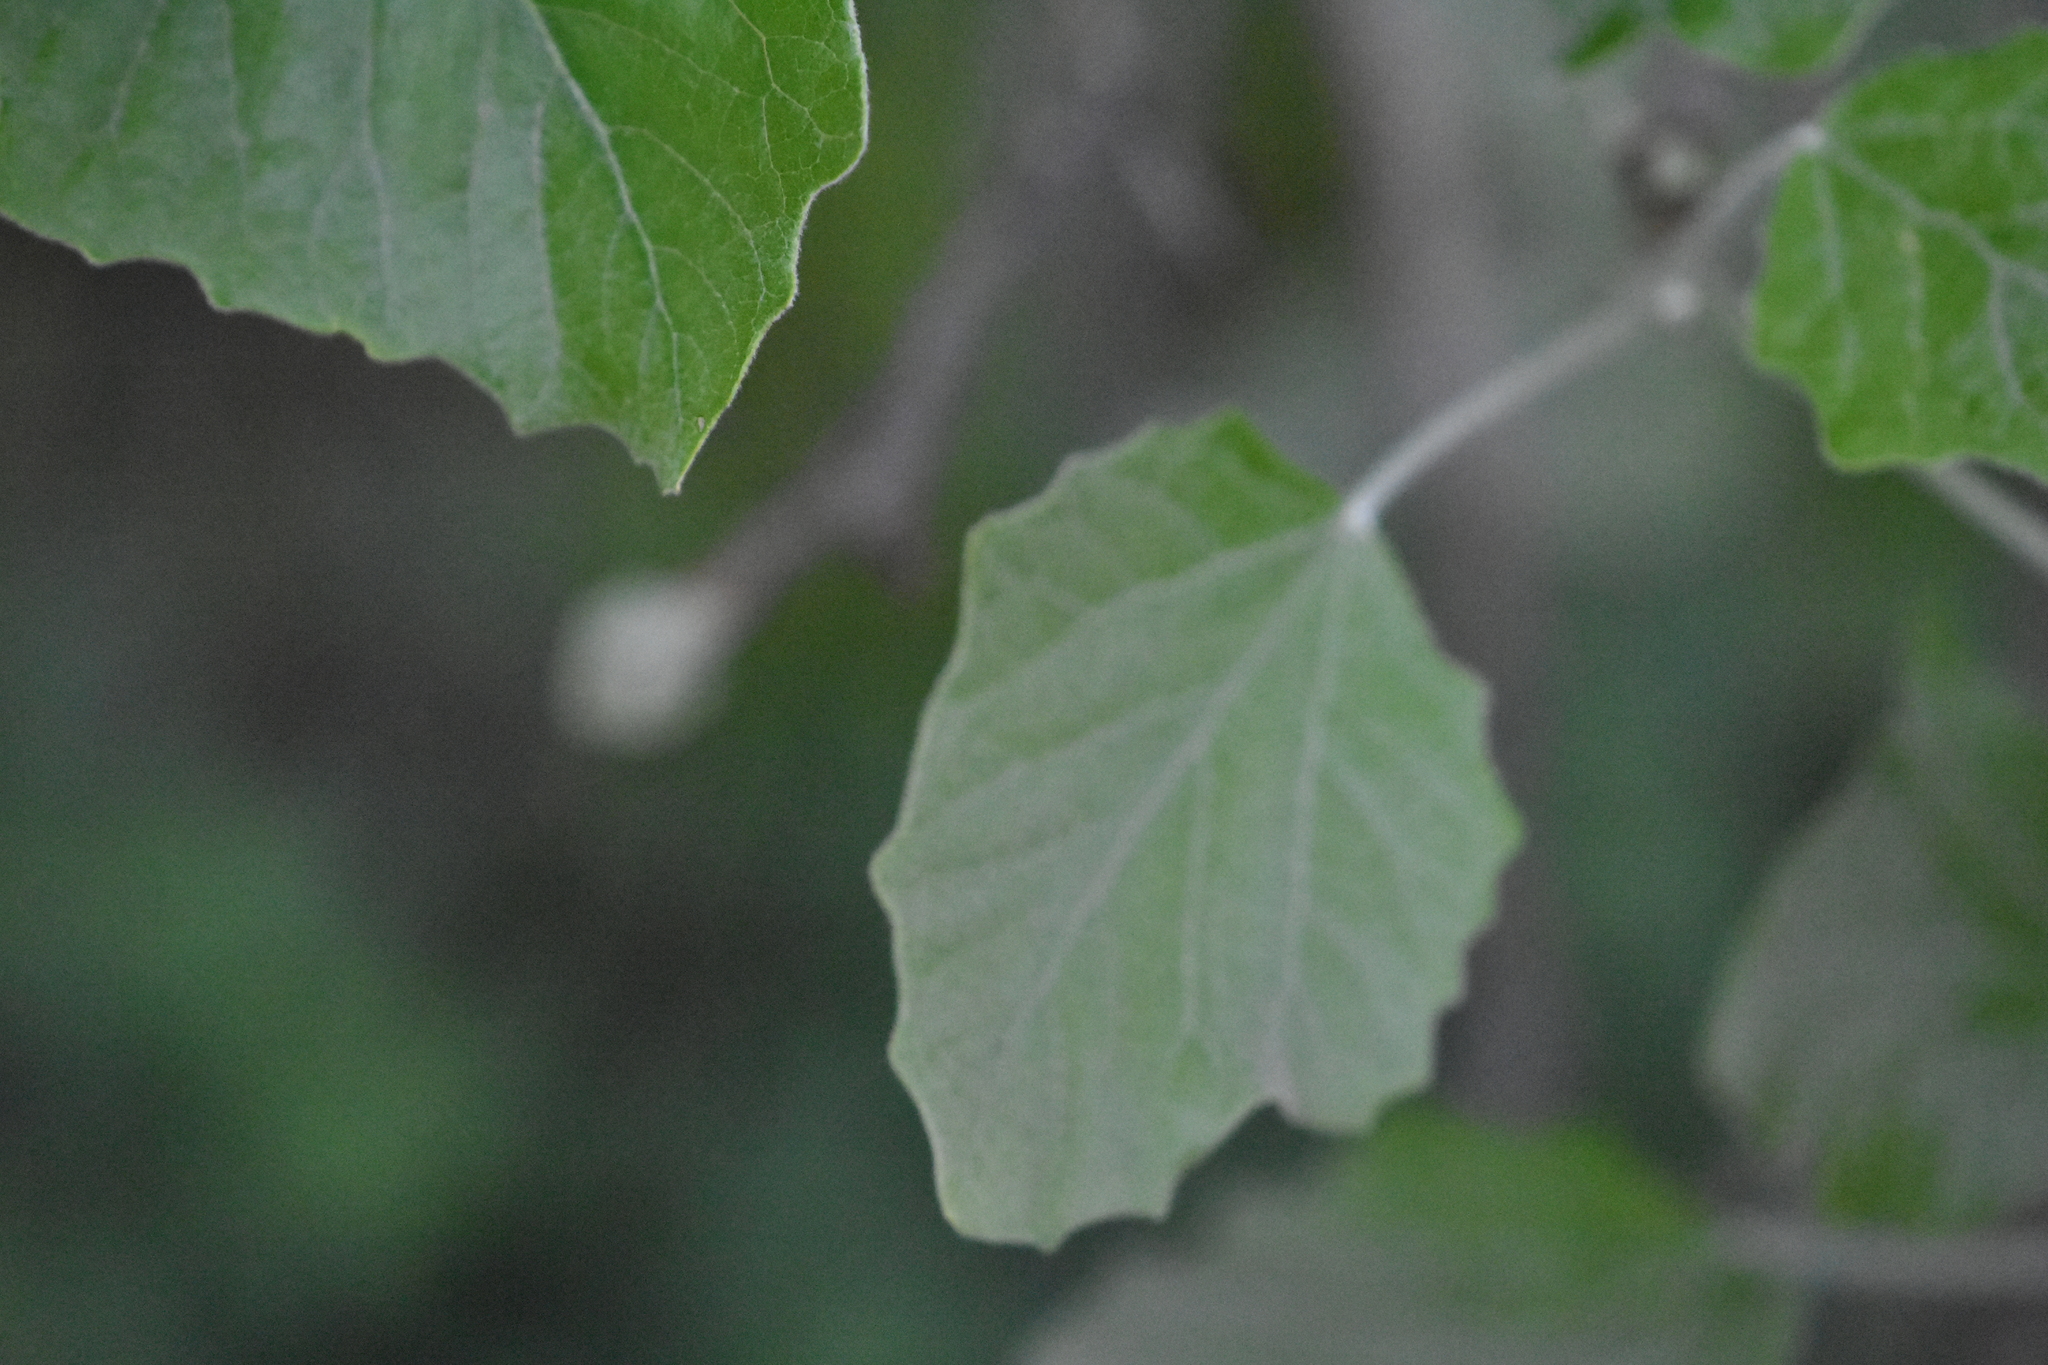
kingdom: Plantae
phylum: Tracheophyta
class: Magnoliopsida
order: Malpighiales
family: Salicaceae
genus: Populus
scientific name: Populus alba
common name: White poplar
